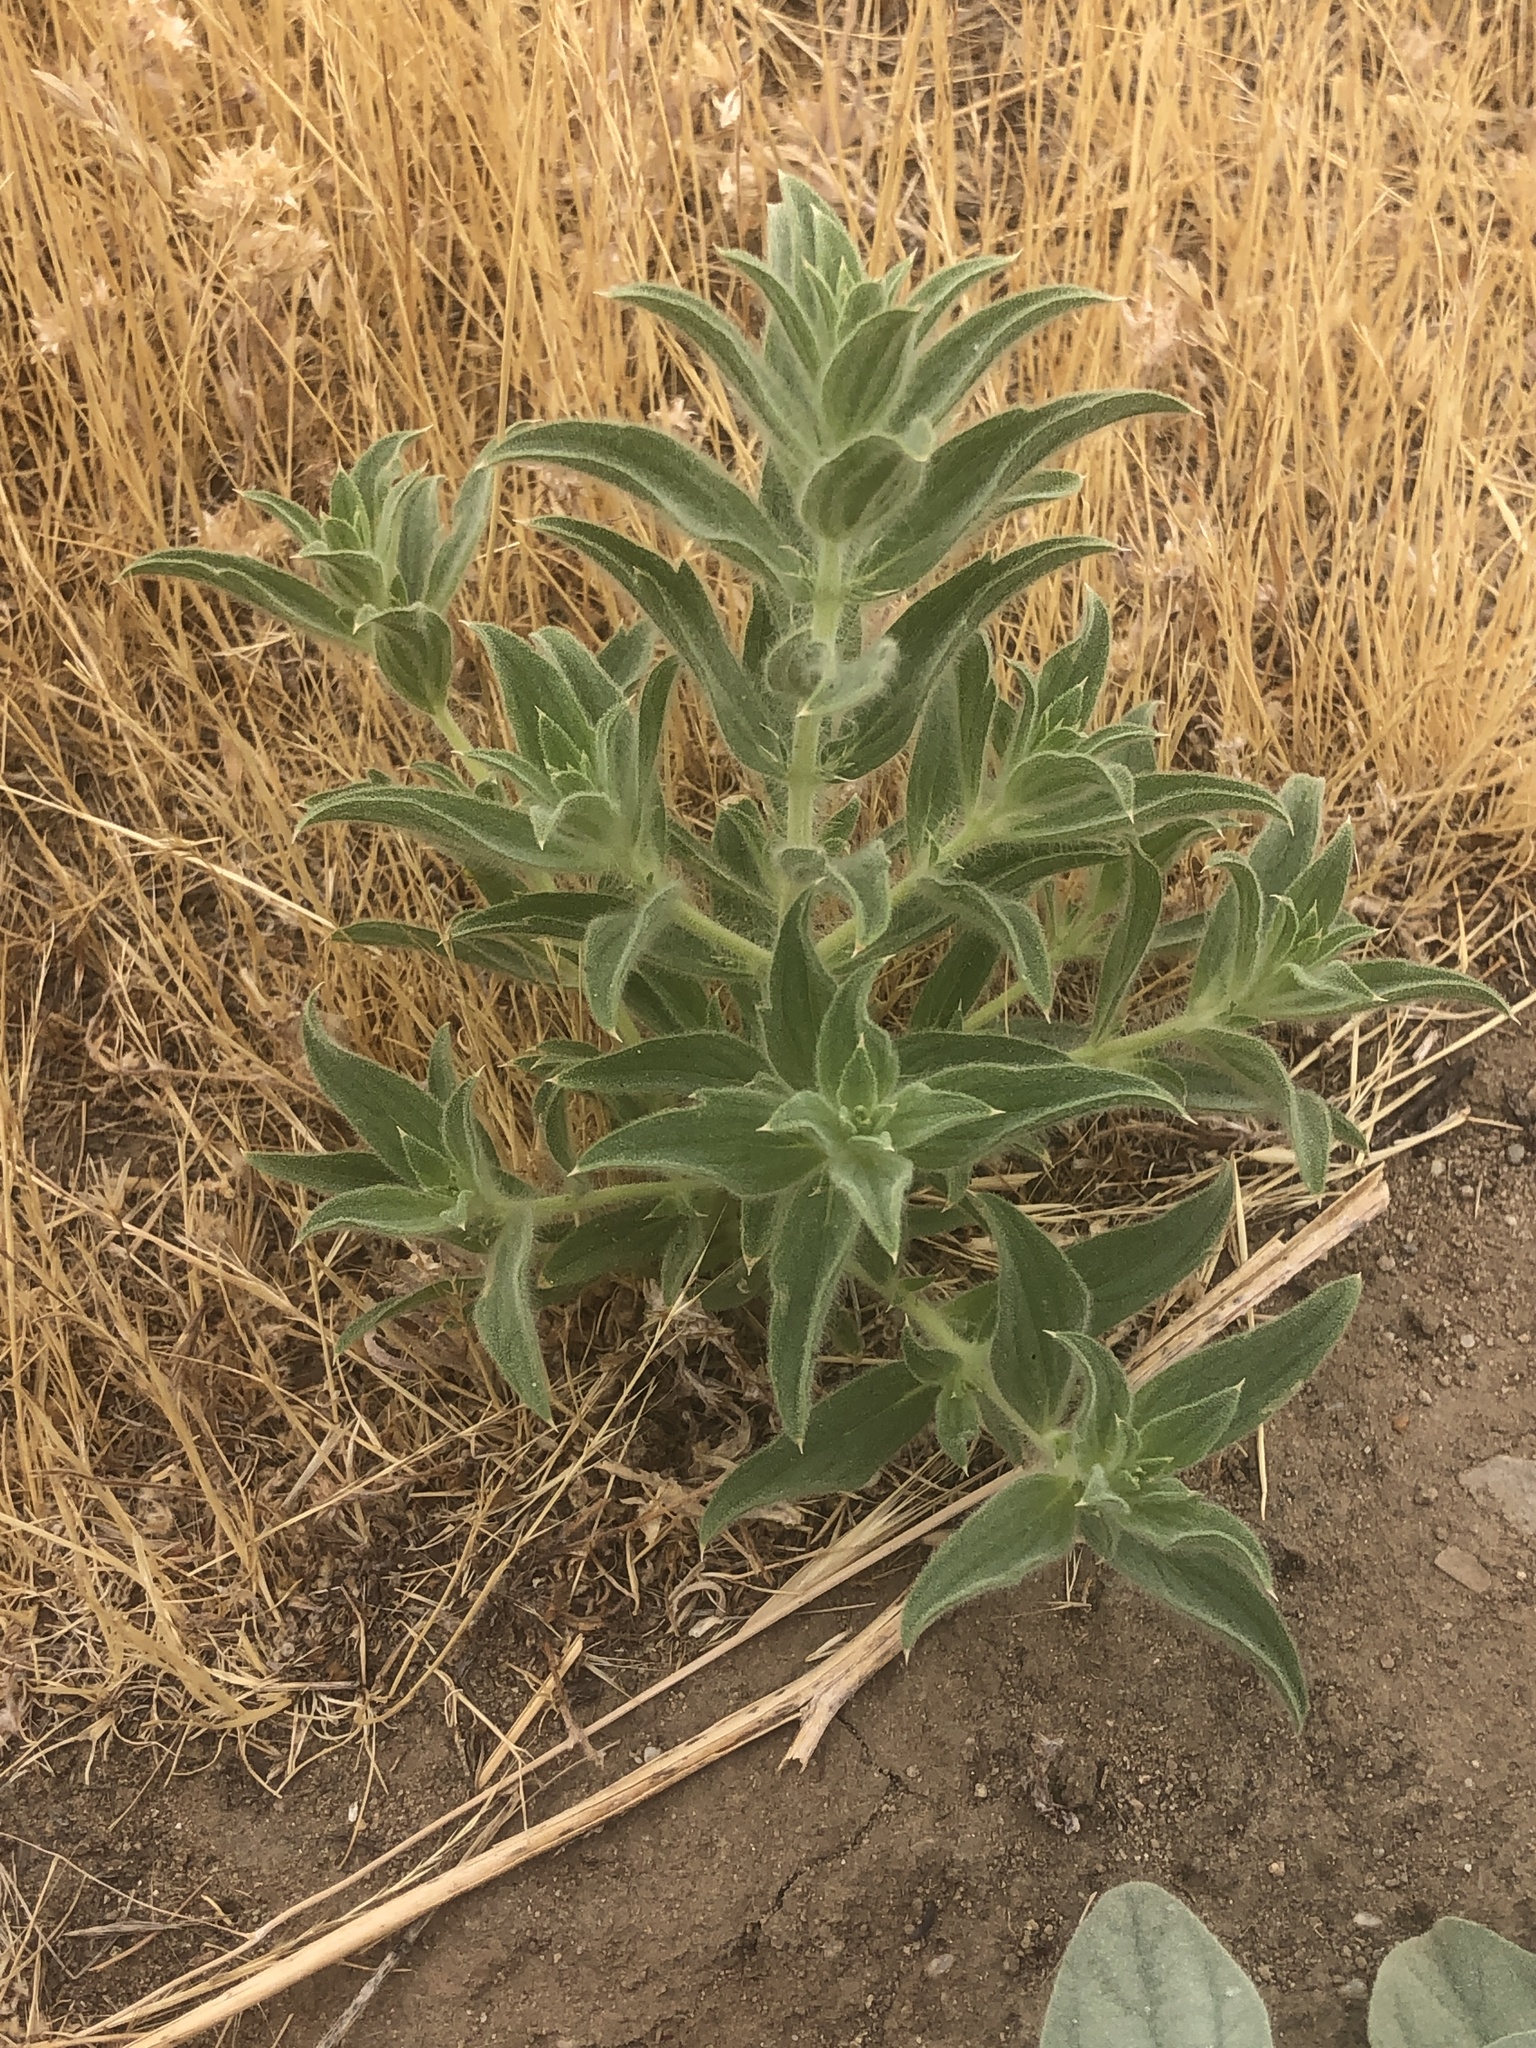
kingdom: Plantae
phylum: Tracheophyta
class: Magnoliopsida
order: Lamiales
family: Lamiaceae
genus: Trichostema
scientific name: Trichostema lanceolatum
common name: Vinegar-weed
